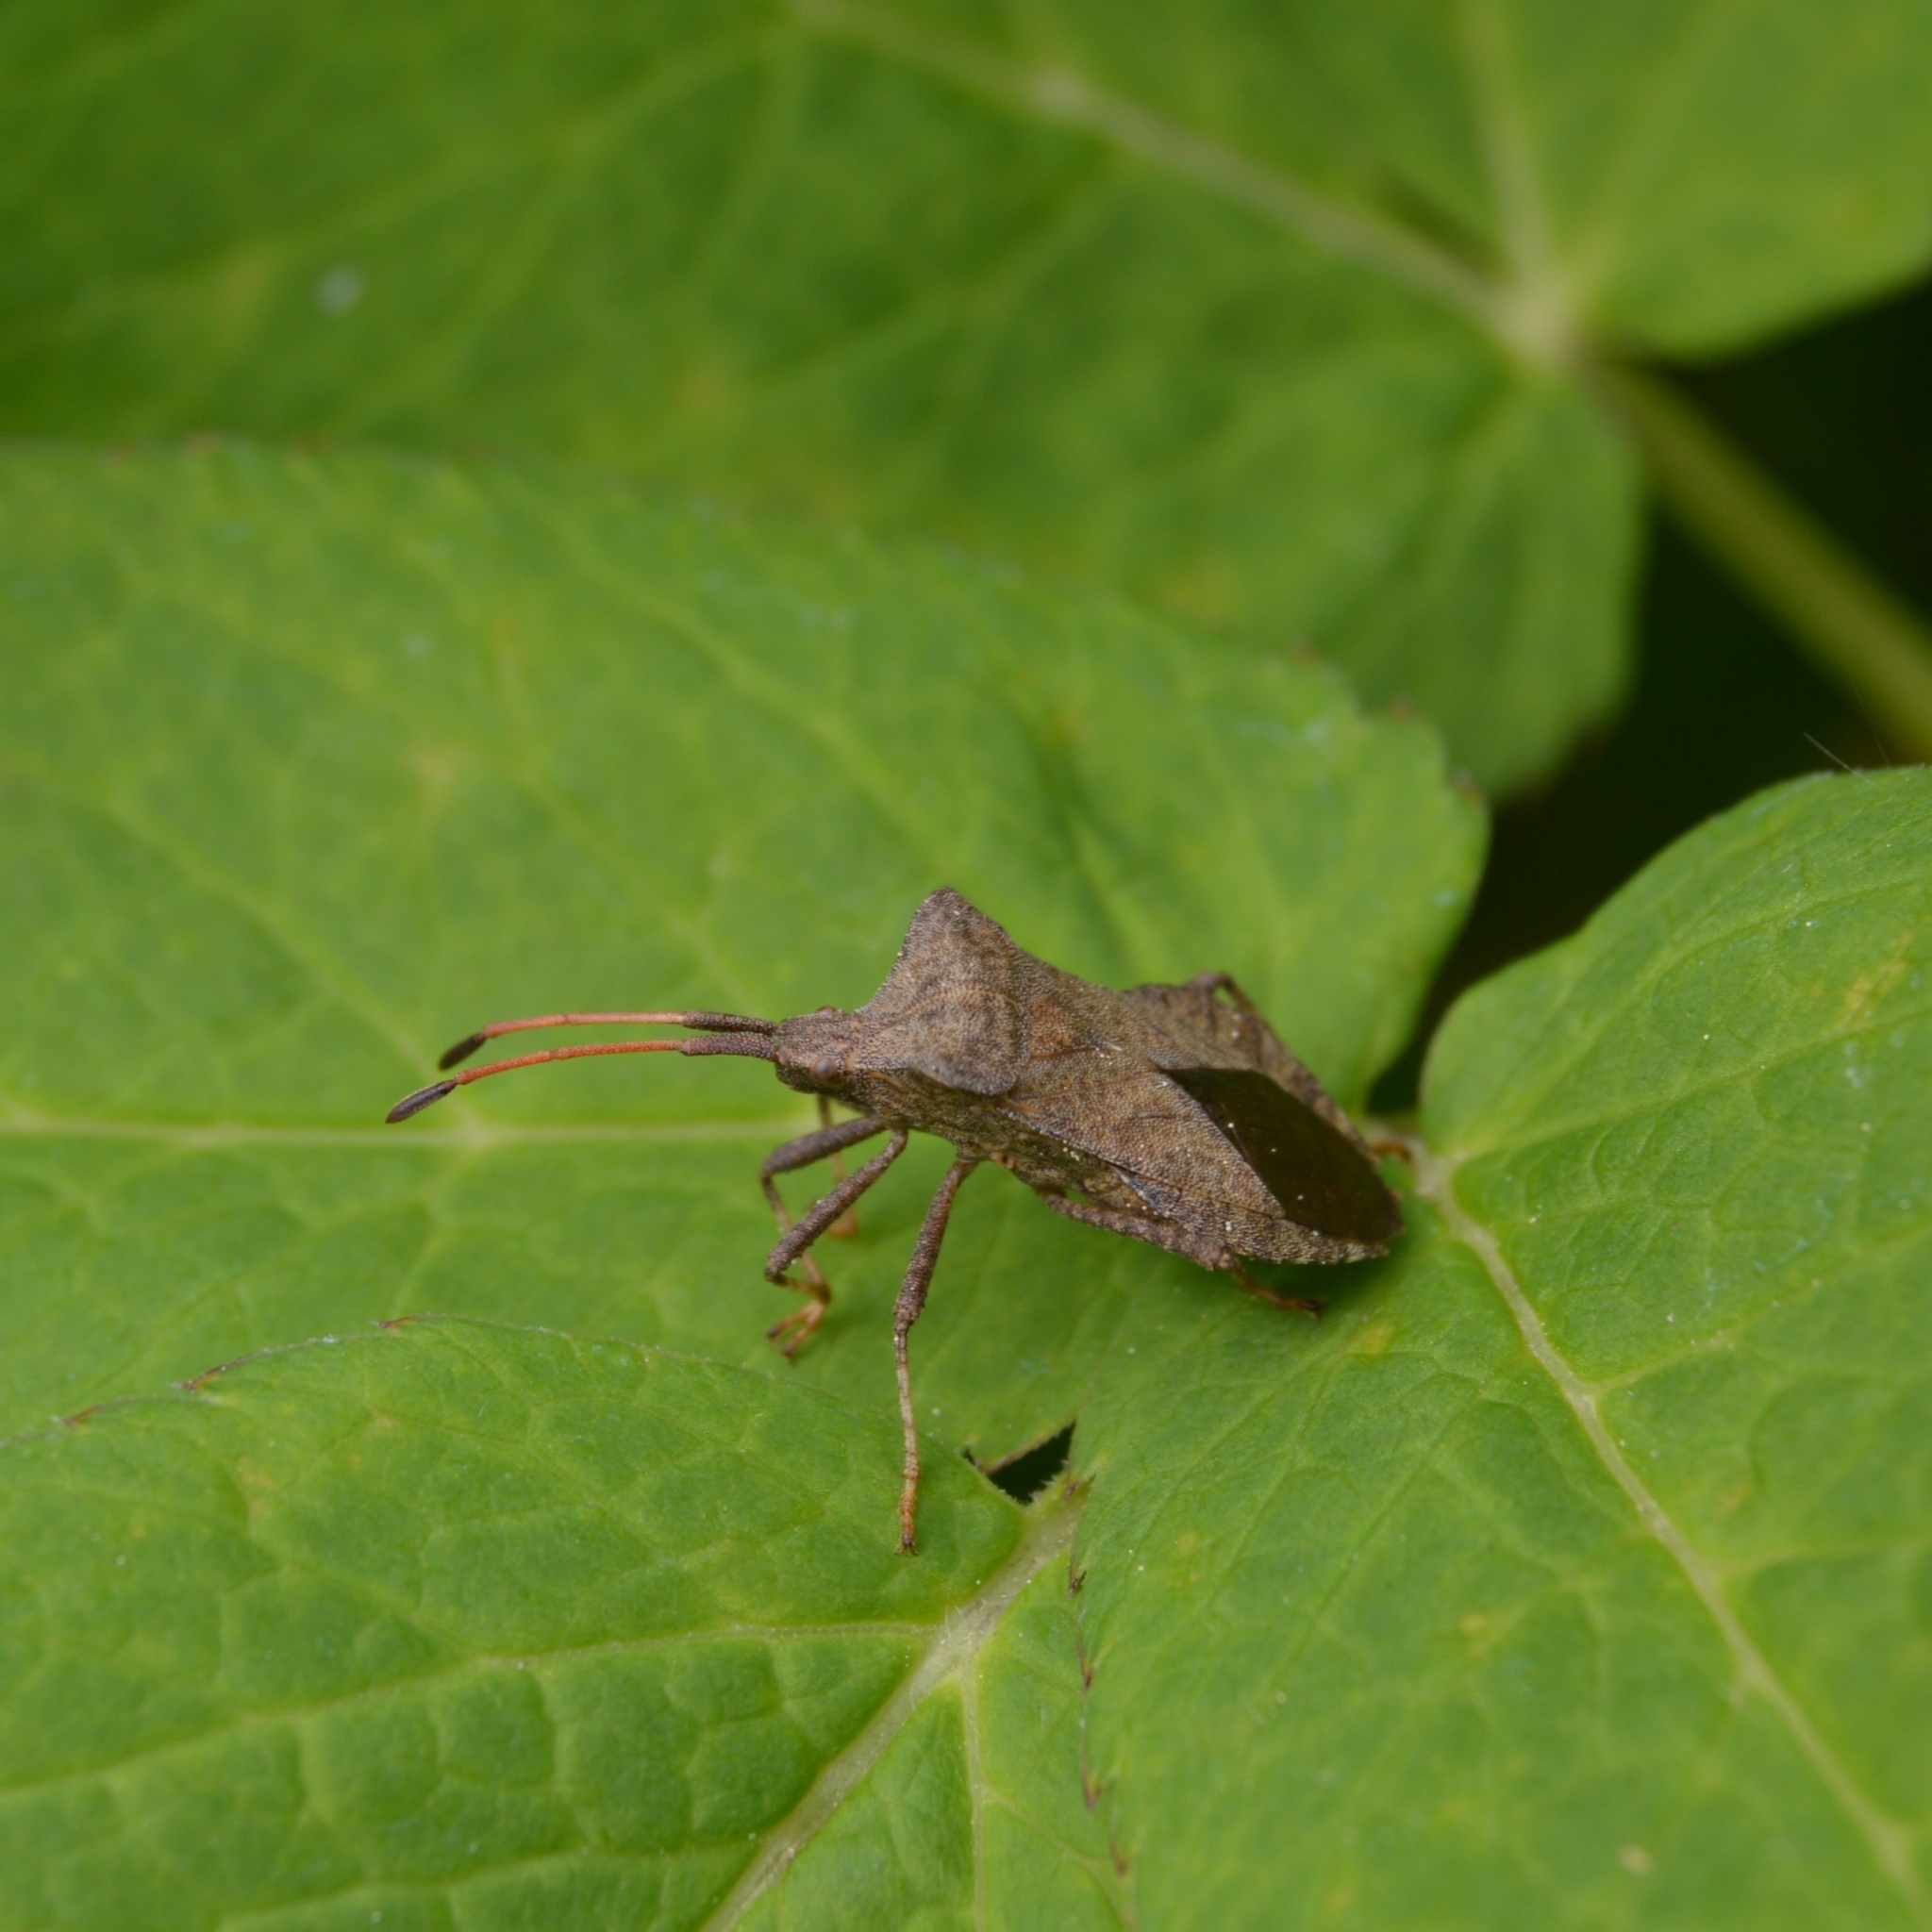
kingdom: Animalia
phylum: Arthropoda
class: Insecta
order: Hemiptera
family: Coreidae
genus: Coreus
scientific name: Coreus marginatus
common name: Dock bug
